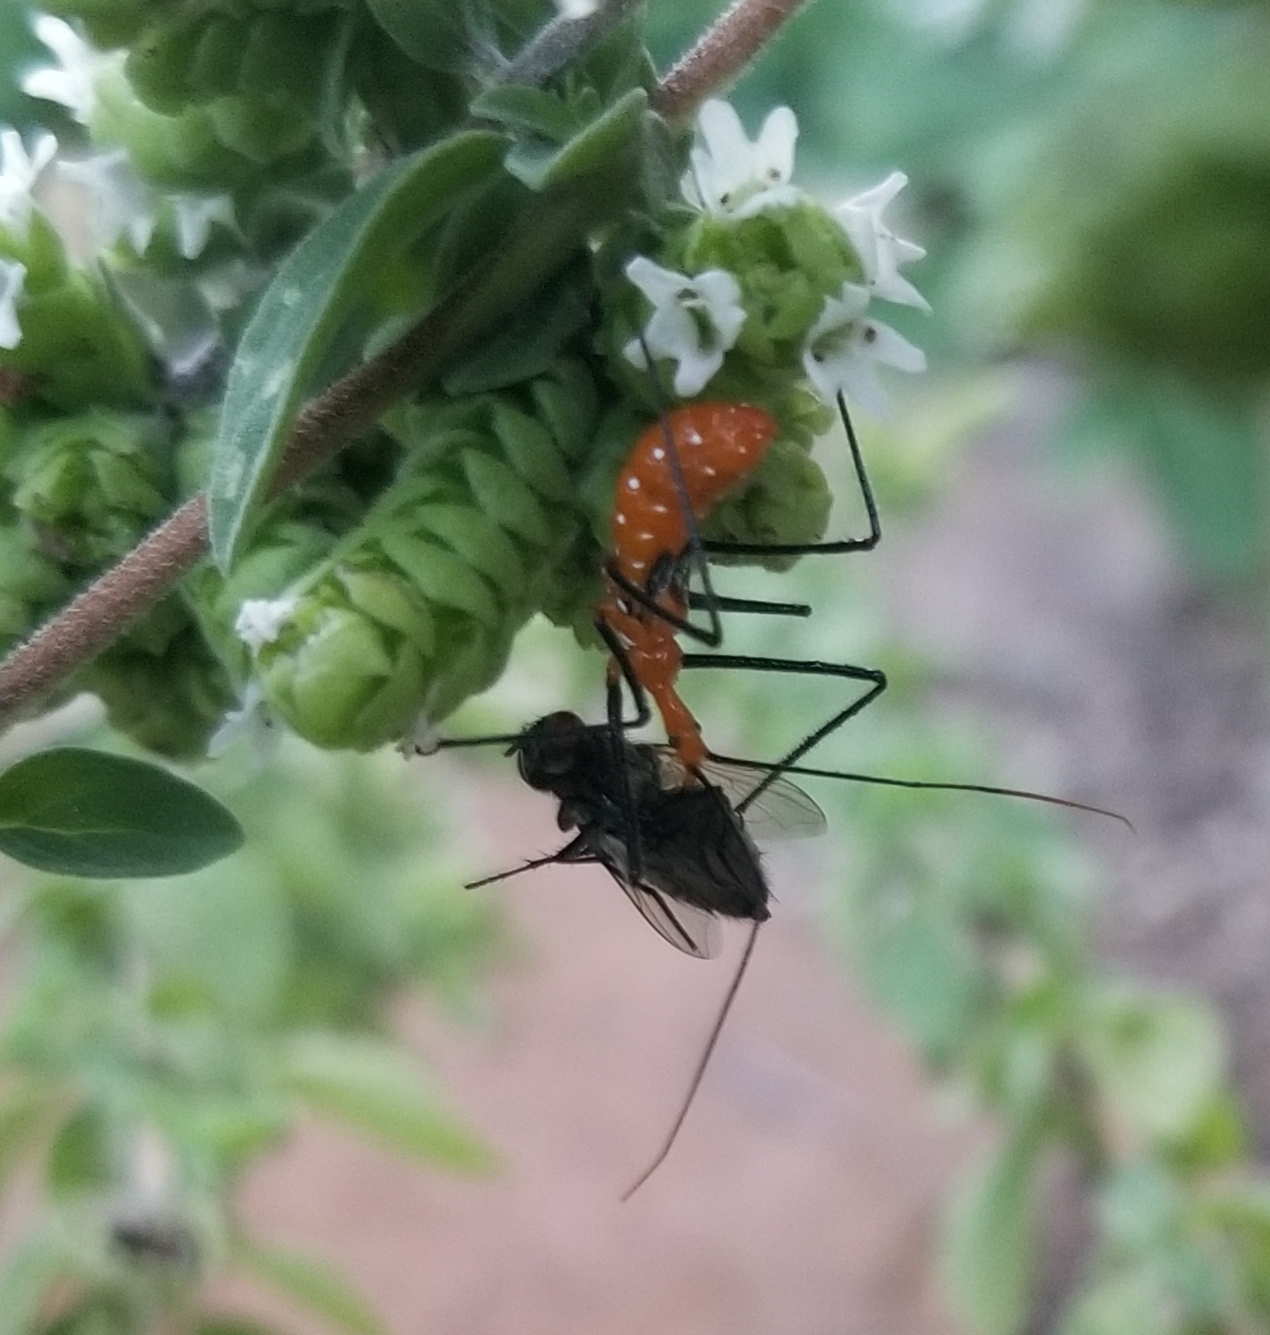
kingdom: Animalia
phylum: Arthropoda
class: Insecta
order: Hemiptera
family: Reduviidae
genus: Zelus
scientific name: Zelus longipes
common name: Milkweed assassin bug
